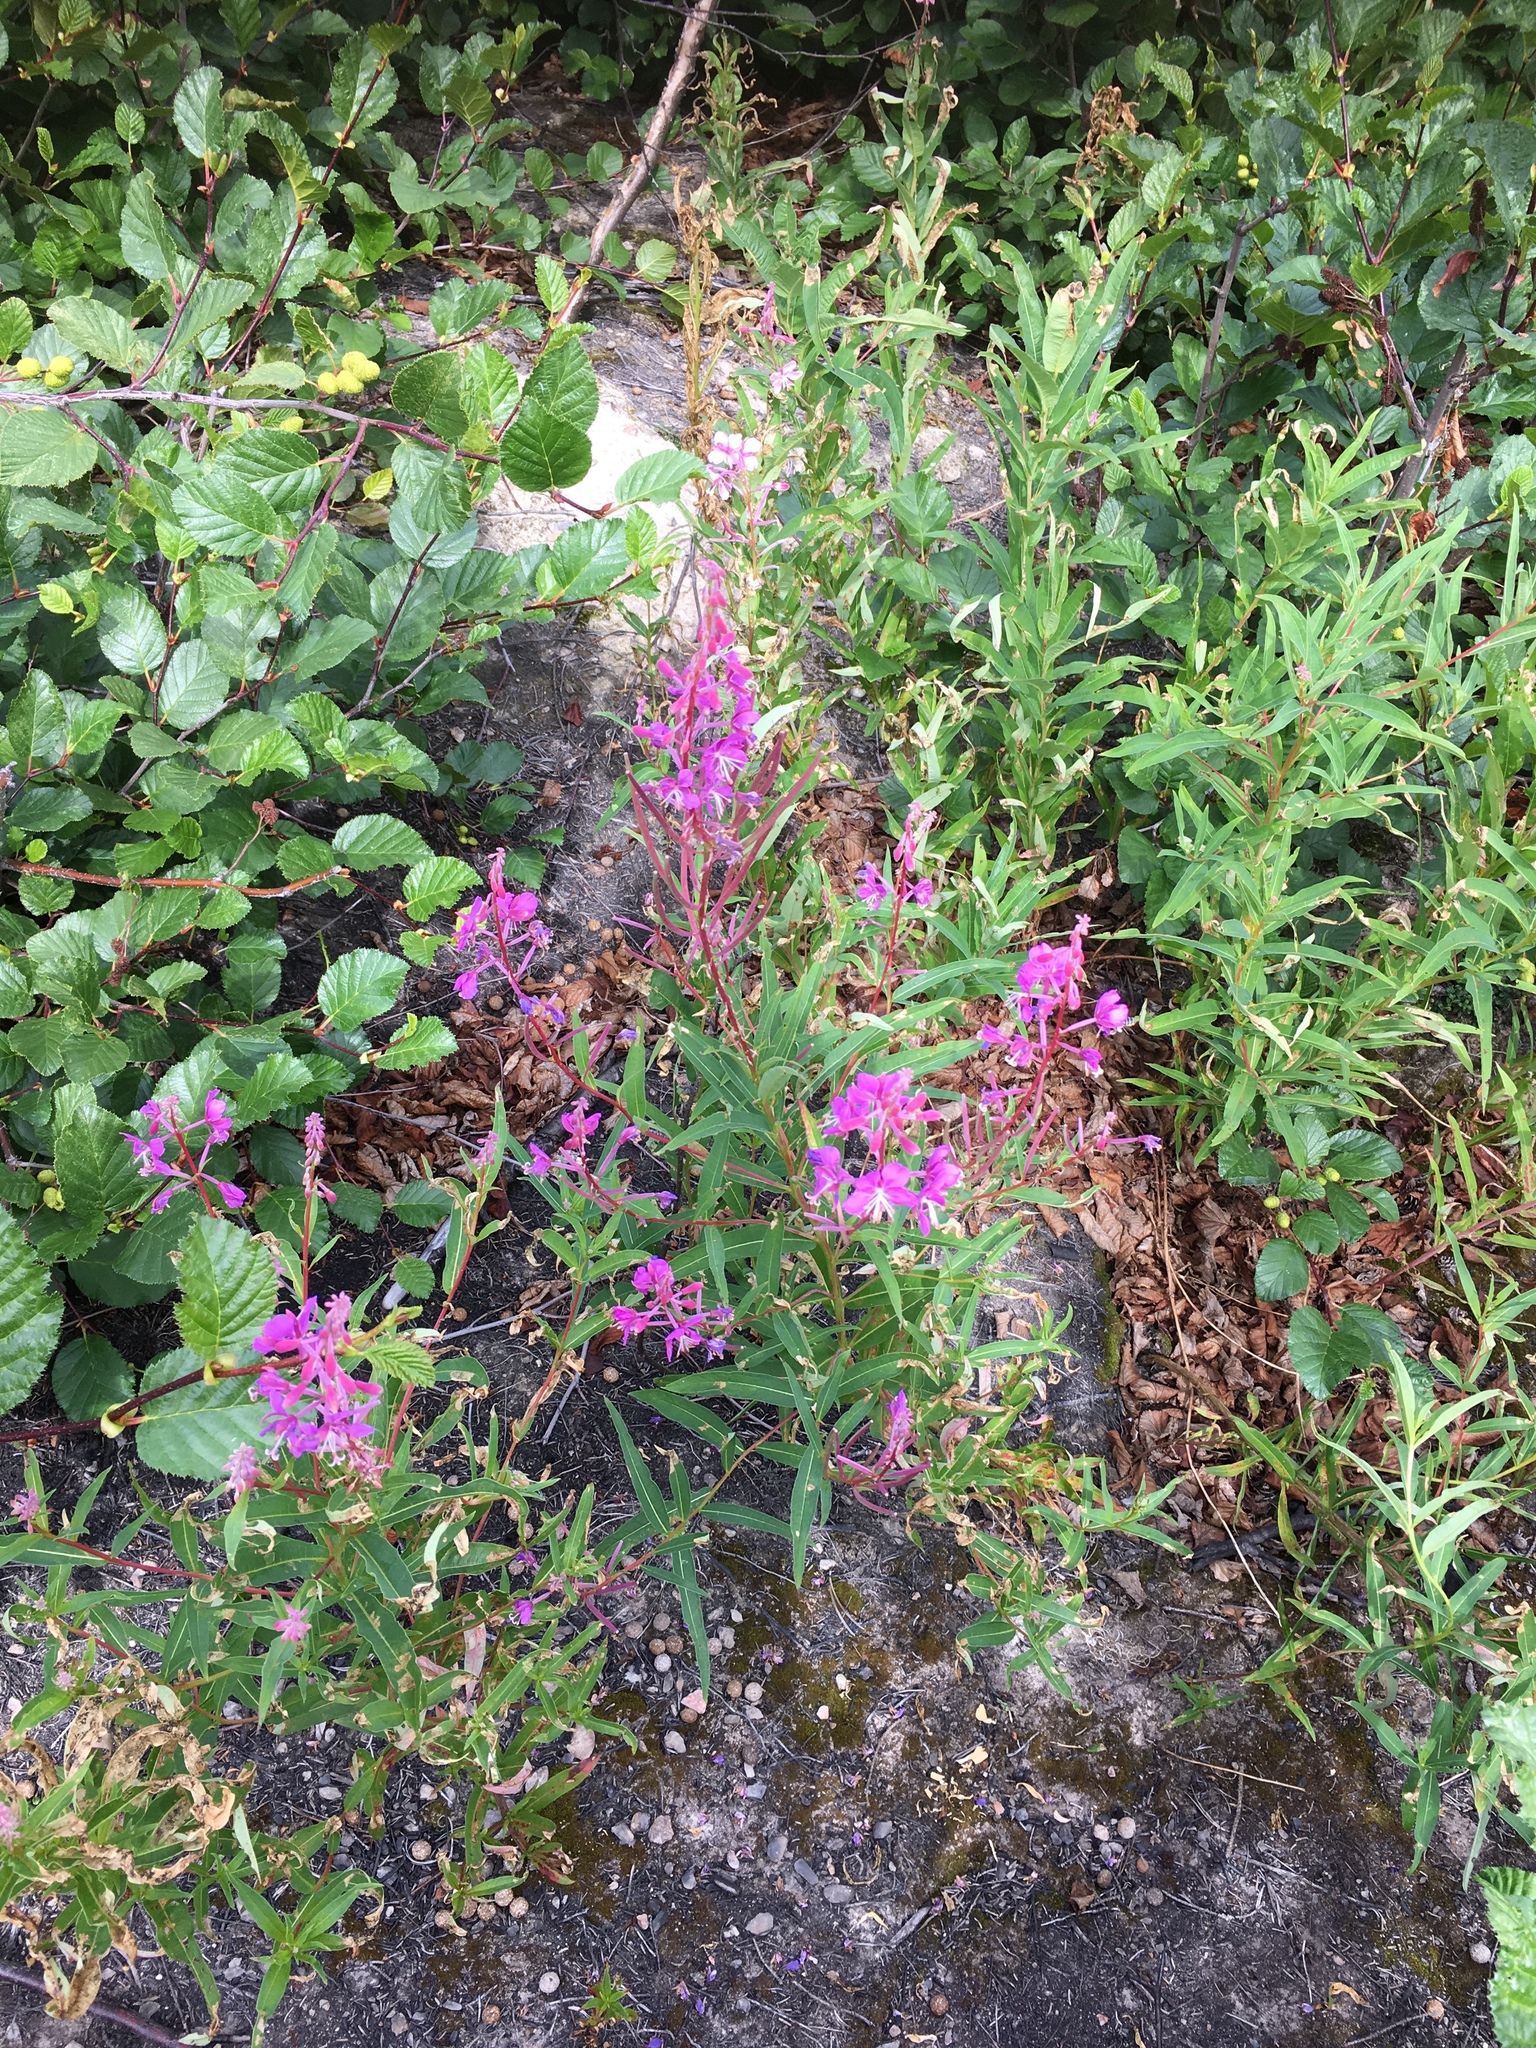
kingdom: Plantae
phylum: Tracheophyta
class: Magnoliopsida
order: Myrtales
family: Onagraceae
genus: Chamaenerion
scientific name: Chamaenerion angustifolium
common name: Fireweed
